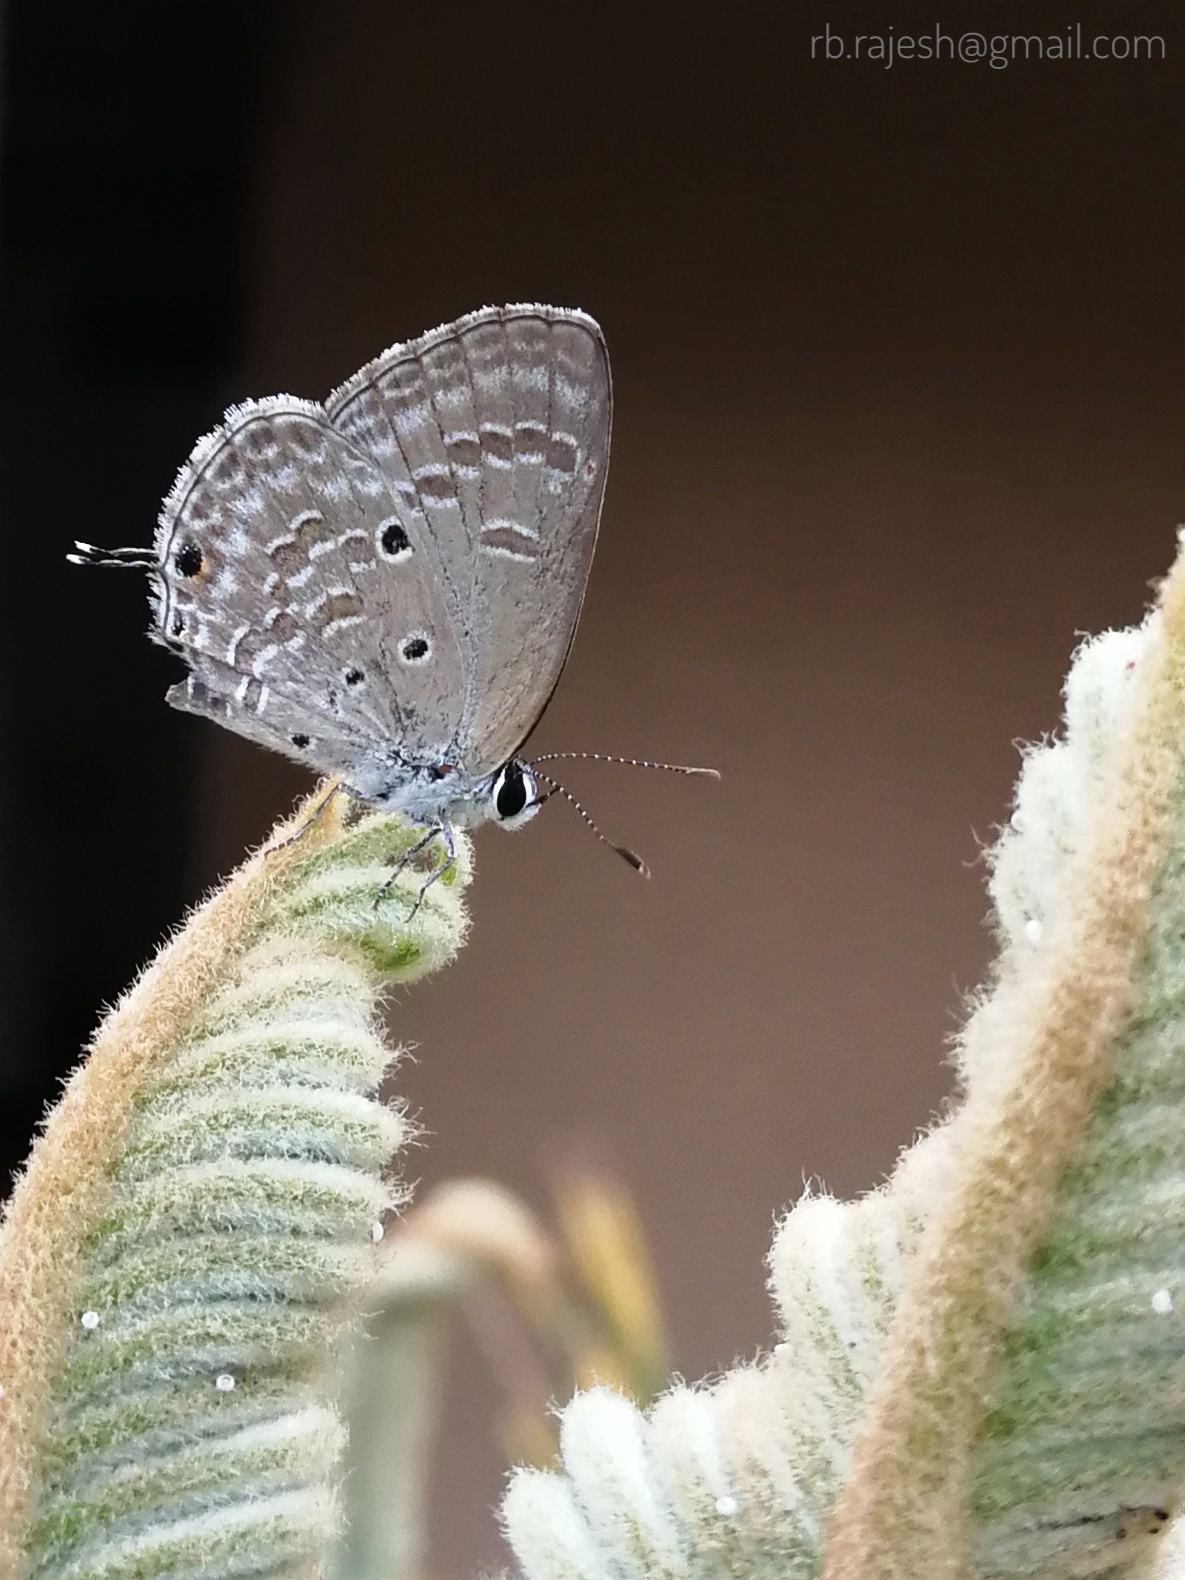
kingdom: Animalia
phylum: Arthropoda
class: Insecta
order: Lepidoptera
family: Lycaenidae
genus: Luthrodes
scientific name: Luthrodes pandava
